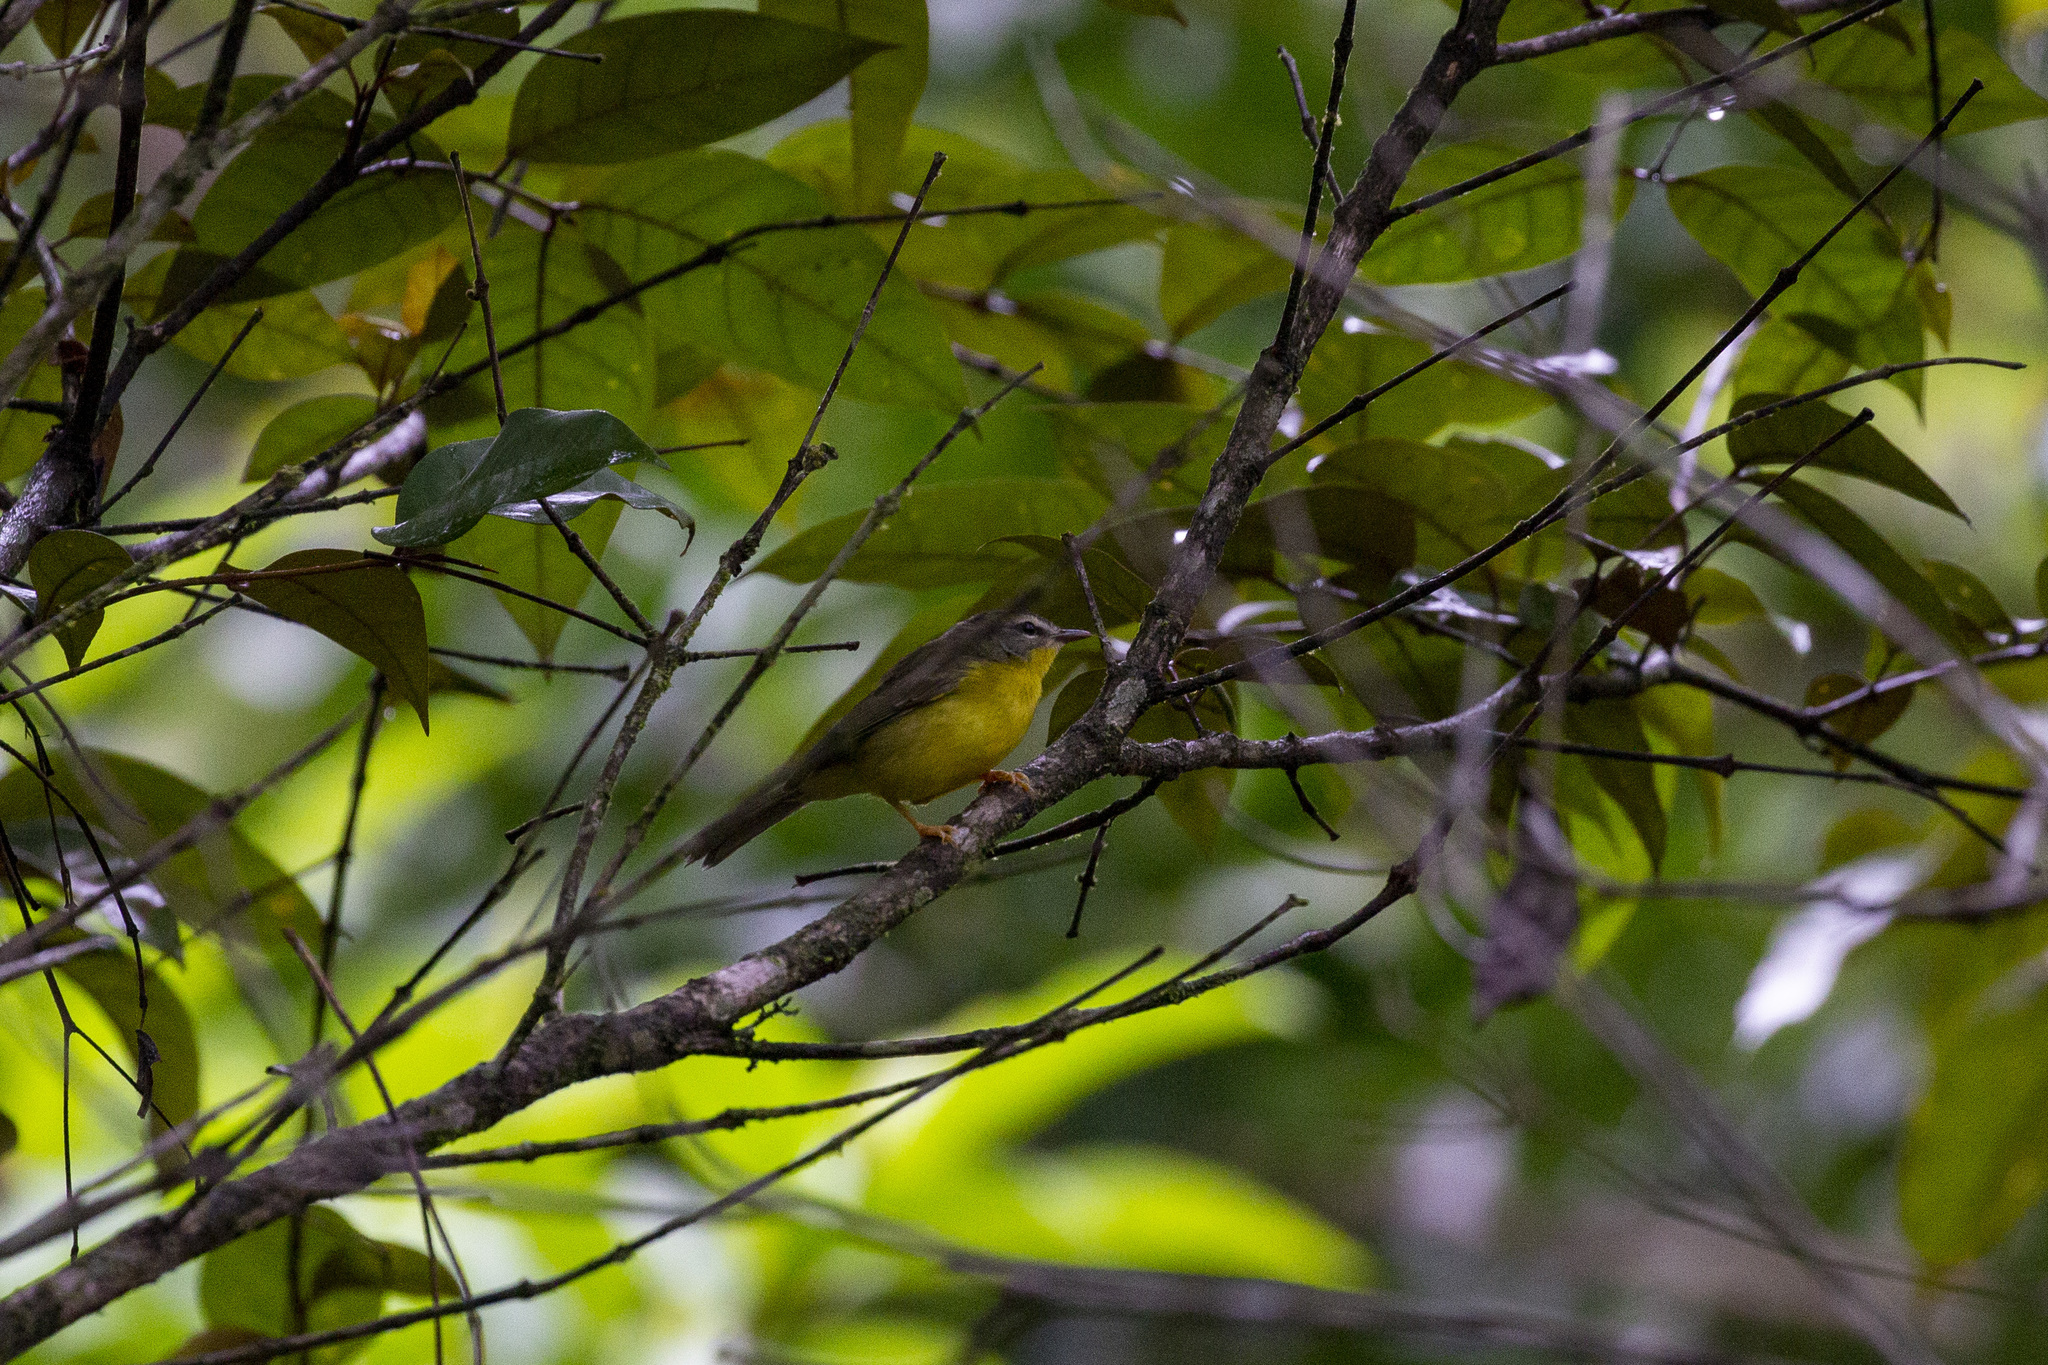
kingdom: Animalia
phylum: Chordata
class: Aves
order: Passeriformes
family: Parulidae
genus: Basileuterus
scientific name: Basileuterus culicivorus
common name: Golden-crowned warbler
